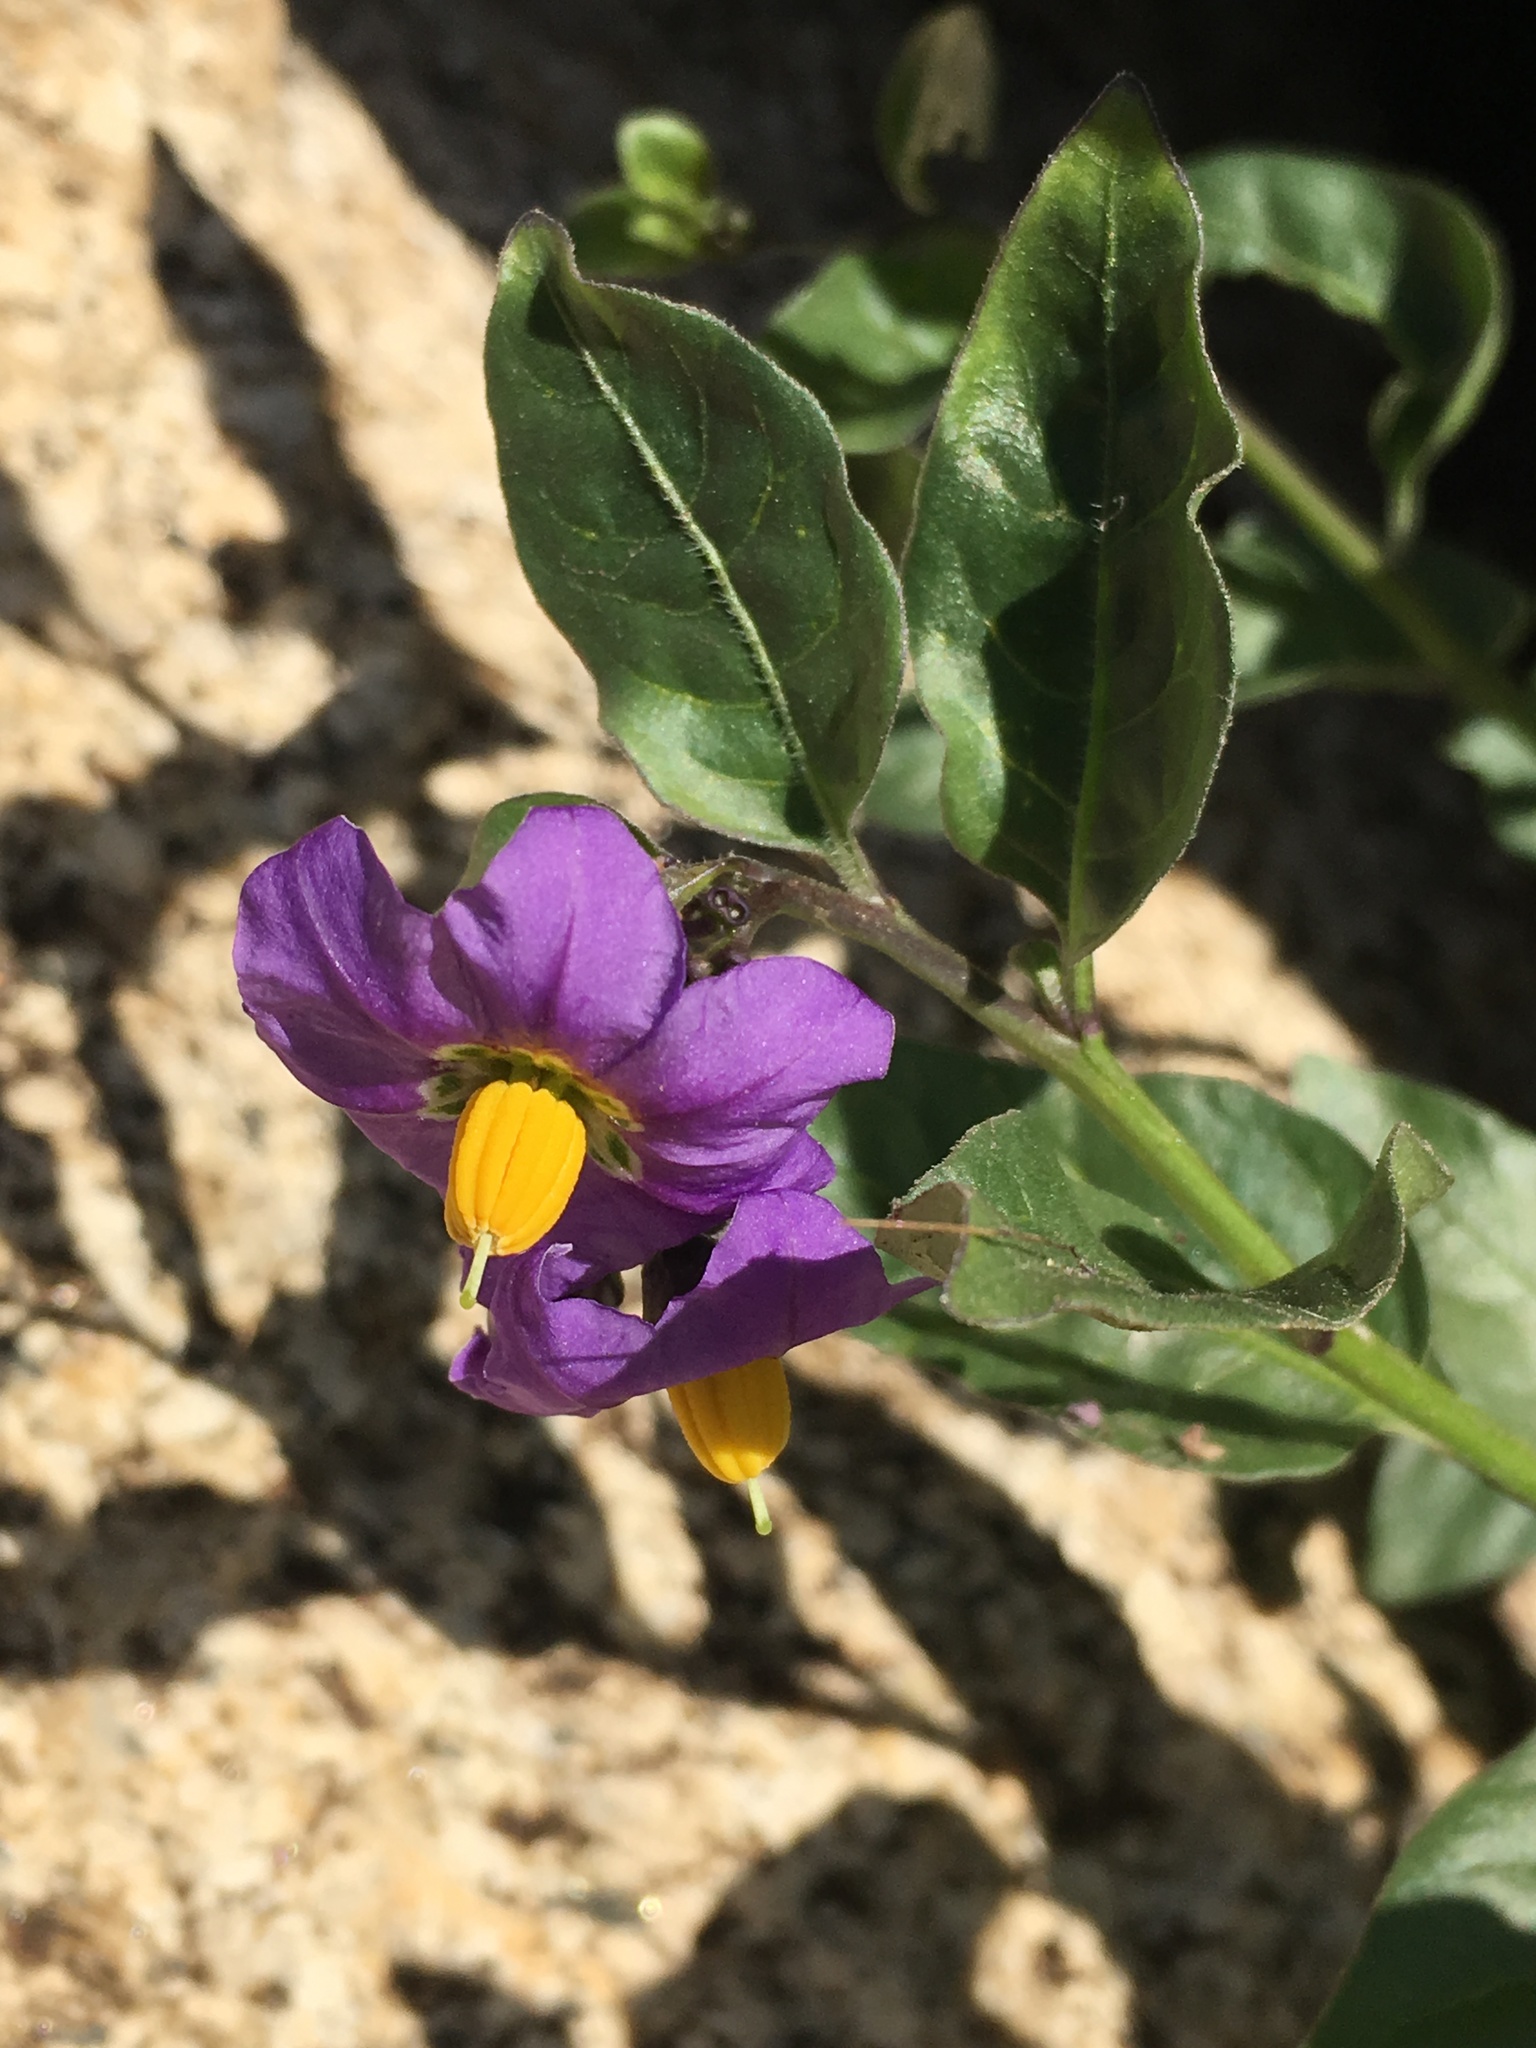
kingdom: Plantae
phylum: Tracheophyta
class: Magnoliopsida
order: Solanales
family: Solanaceae
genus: Solanum
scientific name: Solanum umbelliferum
